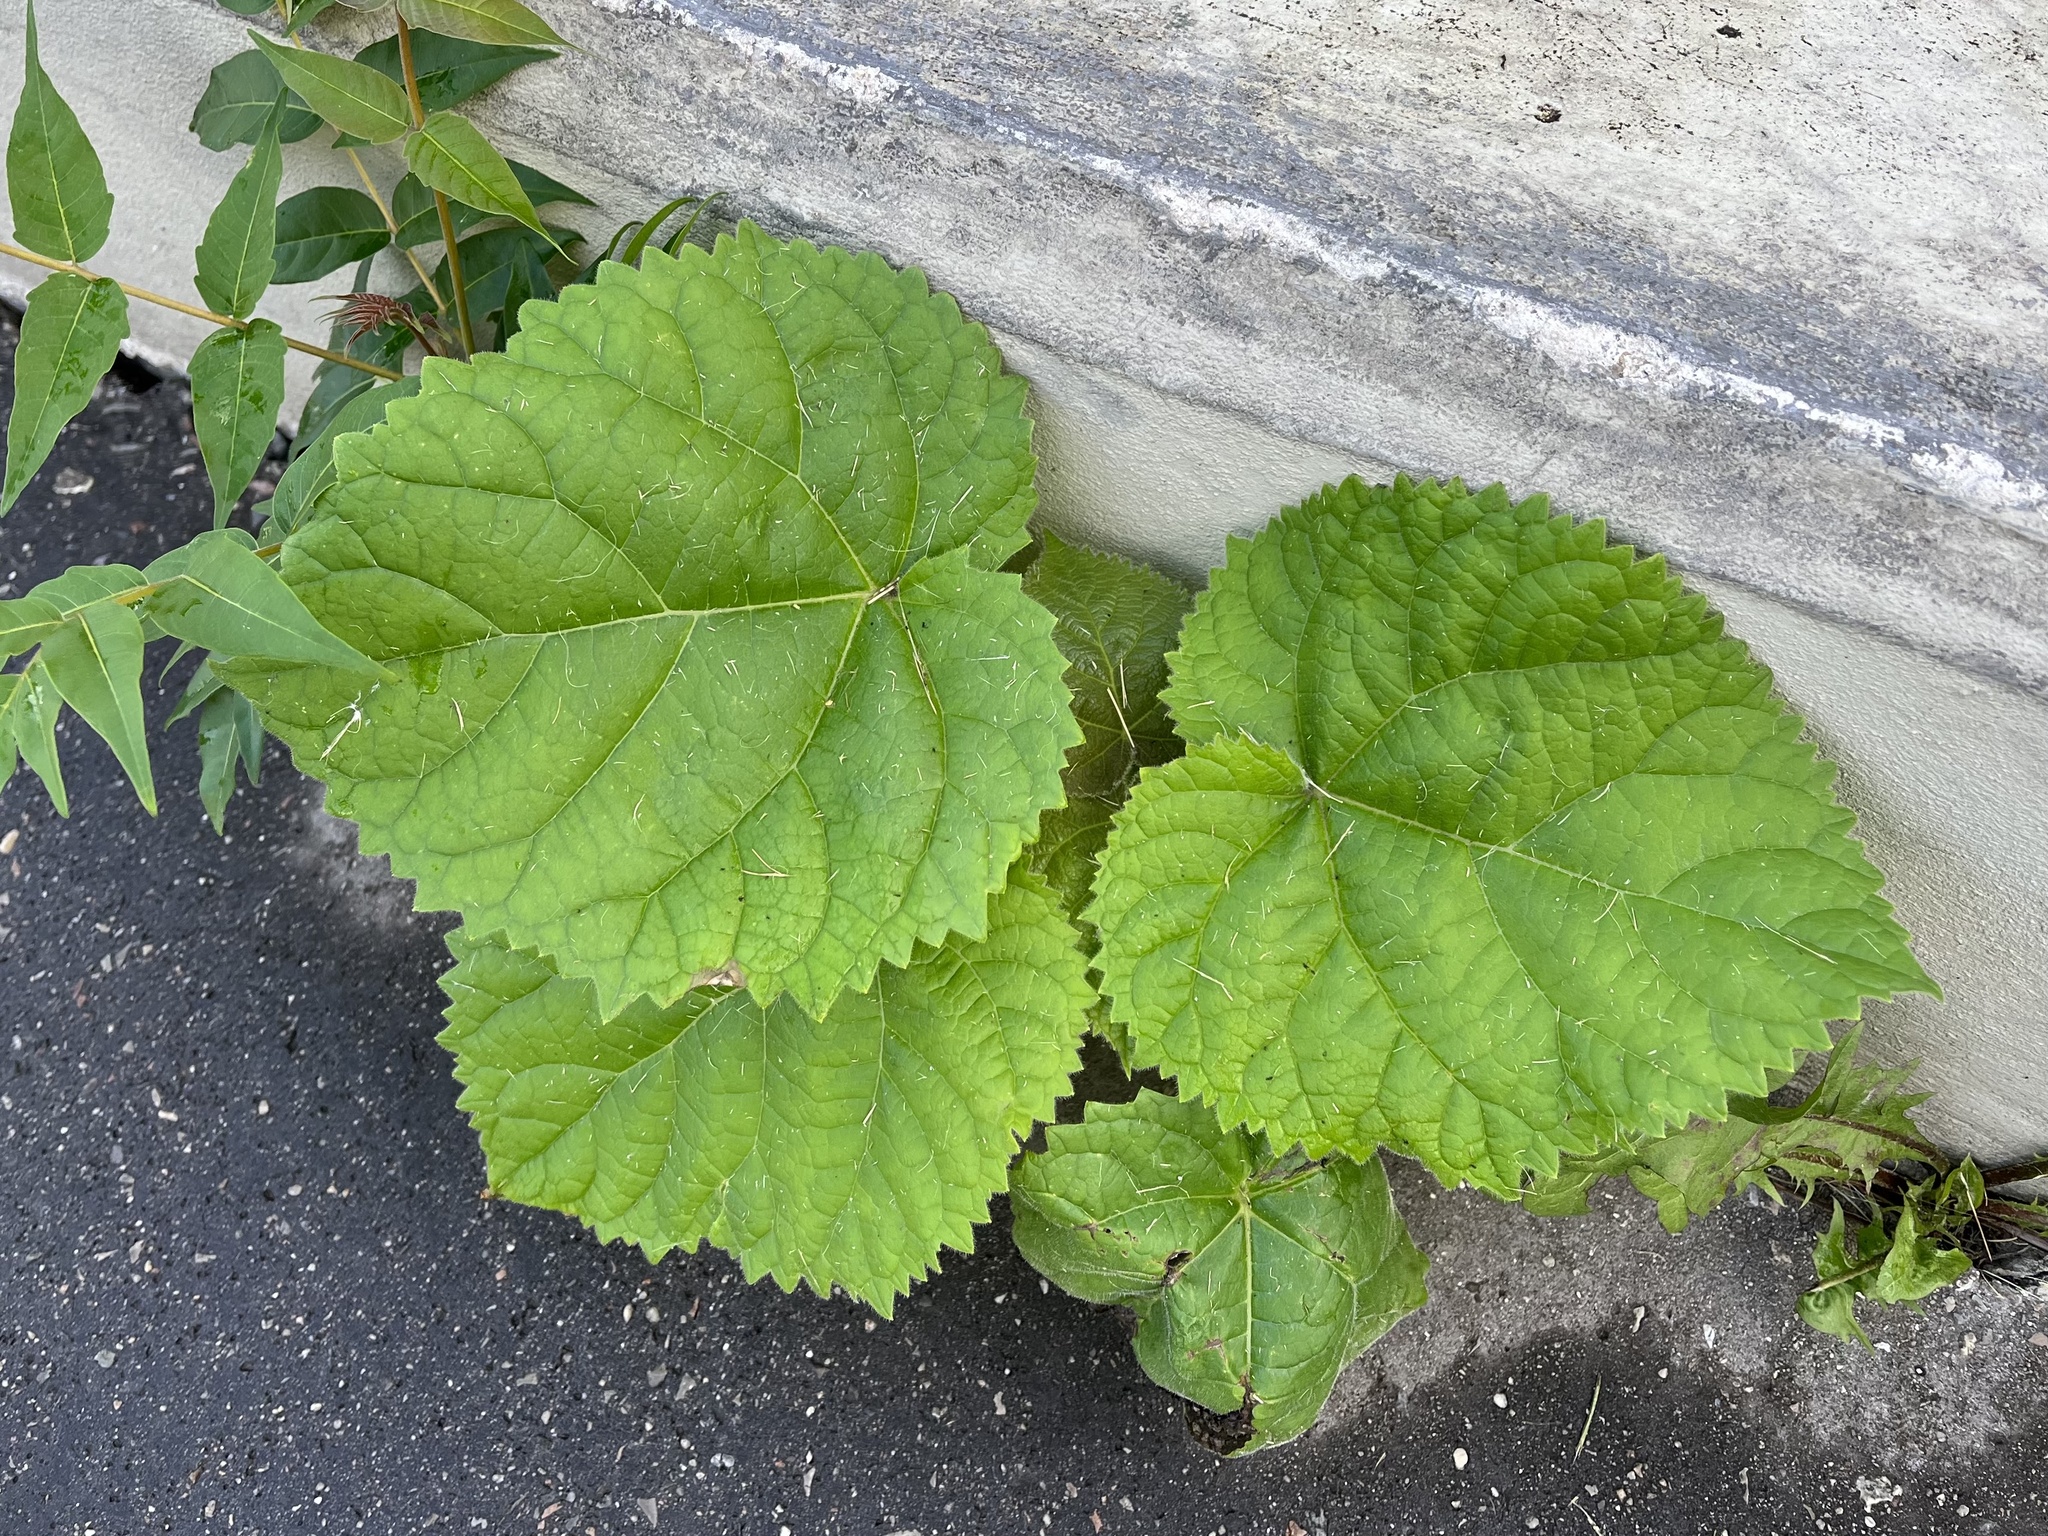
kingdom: Plantae
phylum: Tracheophyta
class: Magnoliopsida
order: Lamiales
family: Paulowniaceae
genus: Paulownia
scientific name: Paulownia tomentosa
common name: Foxglove-tree
